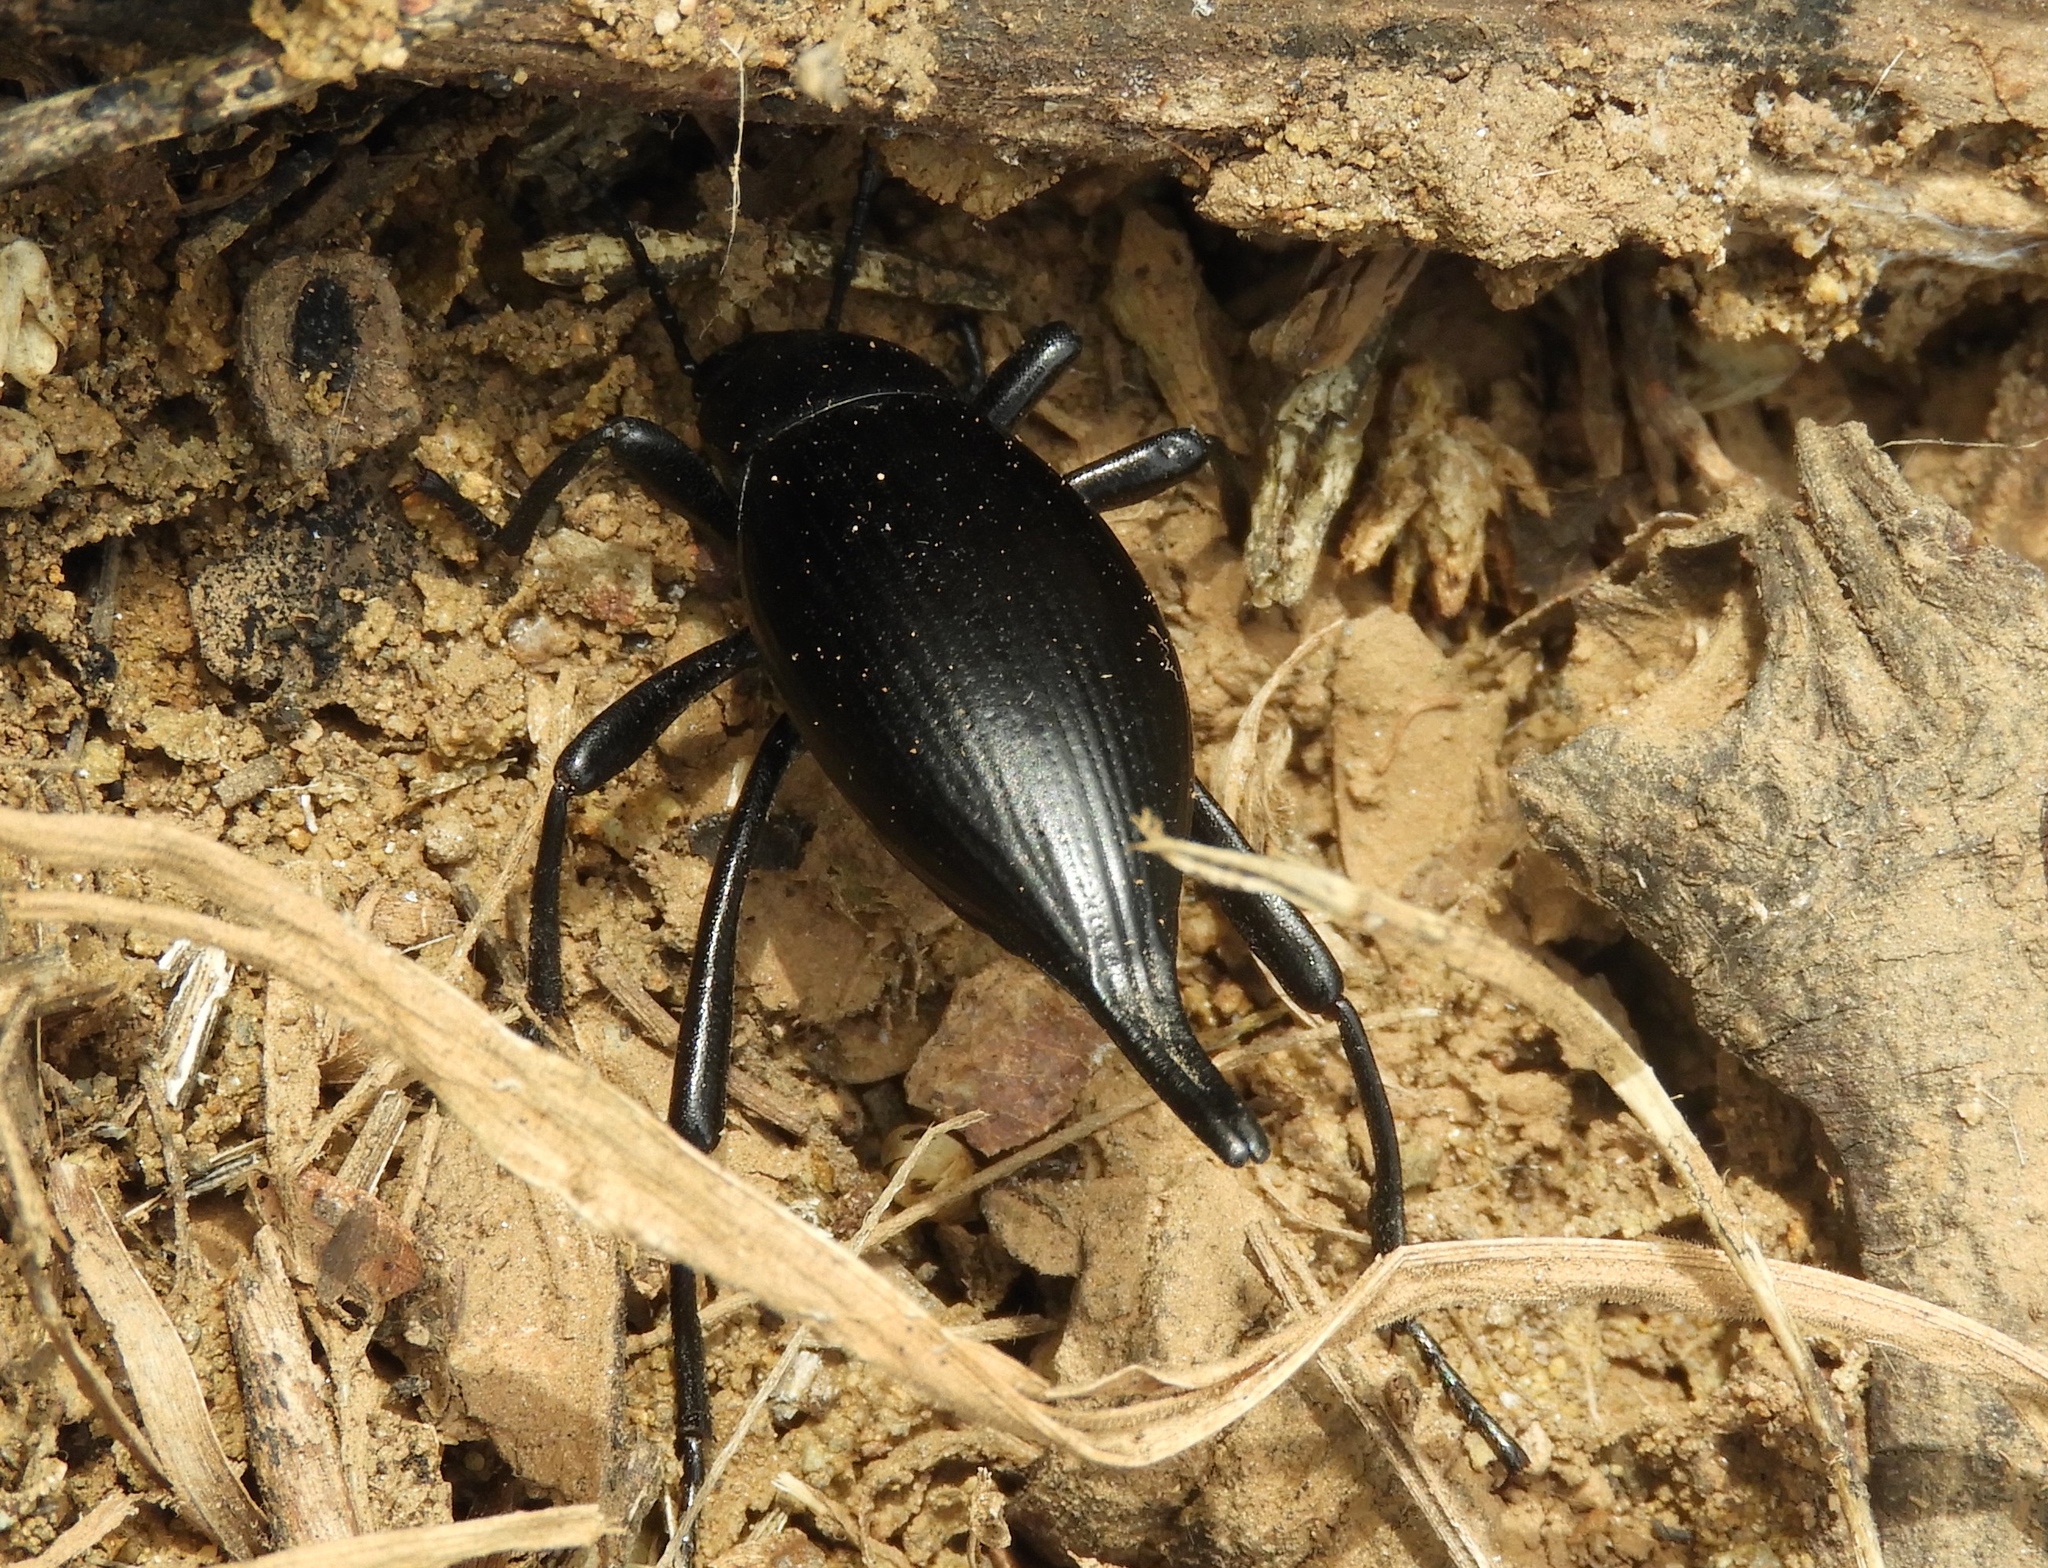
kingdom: Animalia
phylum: Arthropoda
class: Insecta
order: Coleoptera
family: Tenebrionidae
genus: Eleodes
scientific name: Eleodes eschscholtzii
